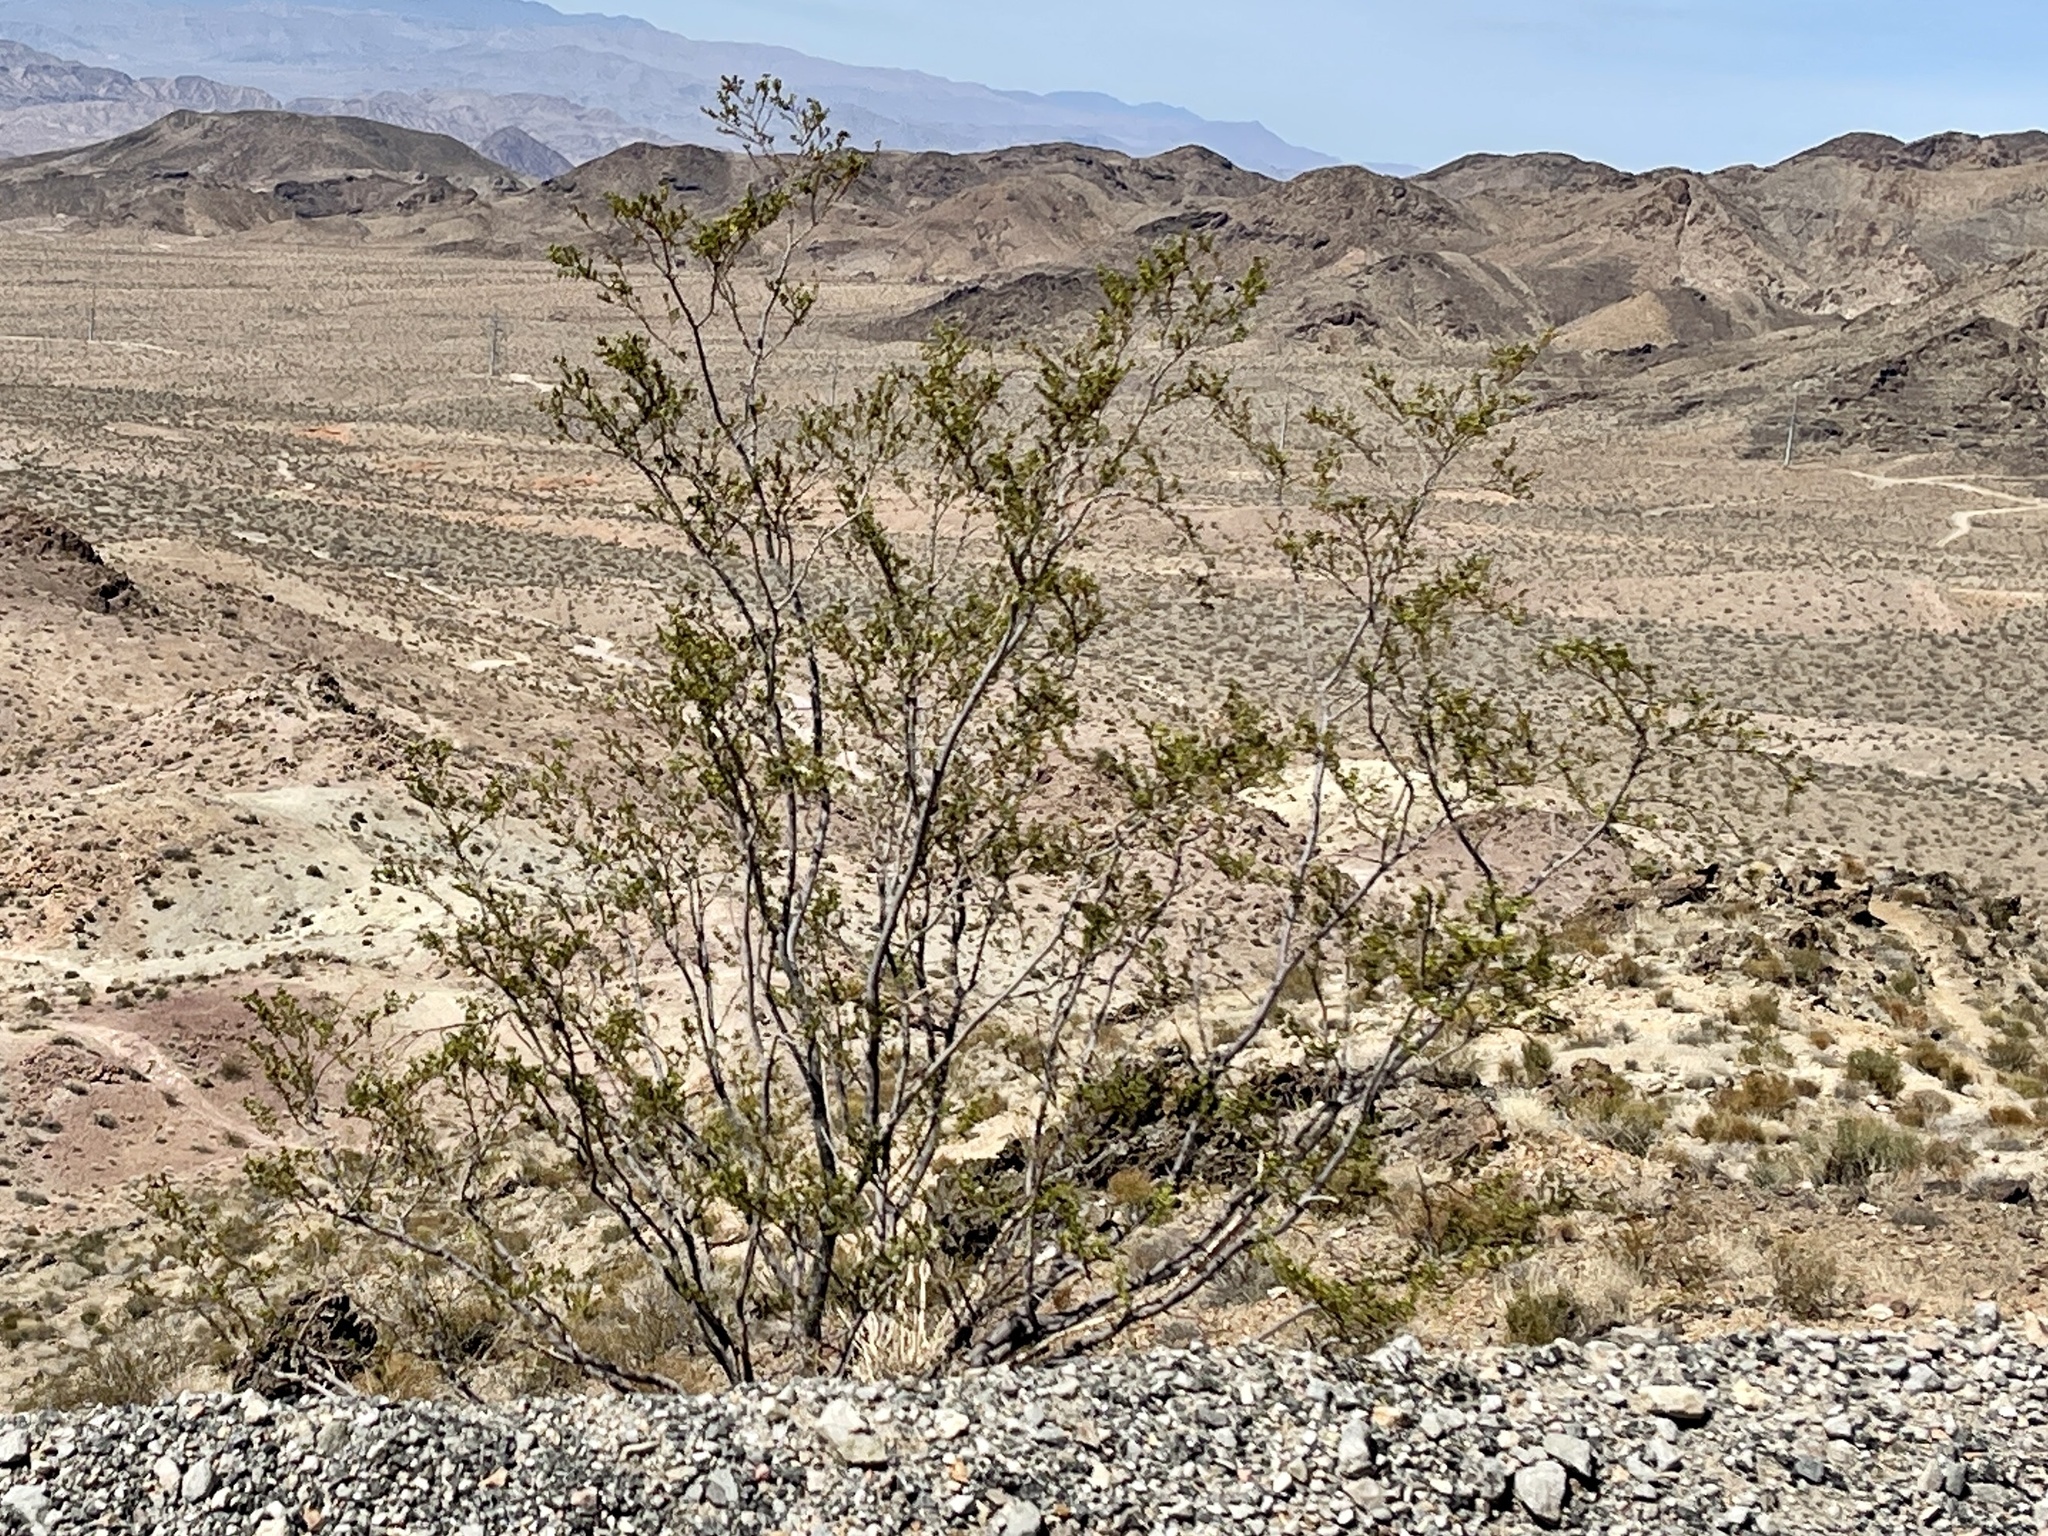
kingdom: Plantae
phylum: Tracheophyta
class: Magnoliopsida
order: Zygophyllales
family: Zygophyllaceae
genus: Larrea
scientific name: Larrea tridentata
